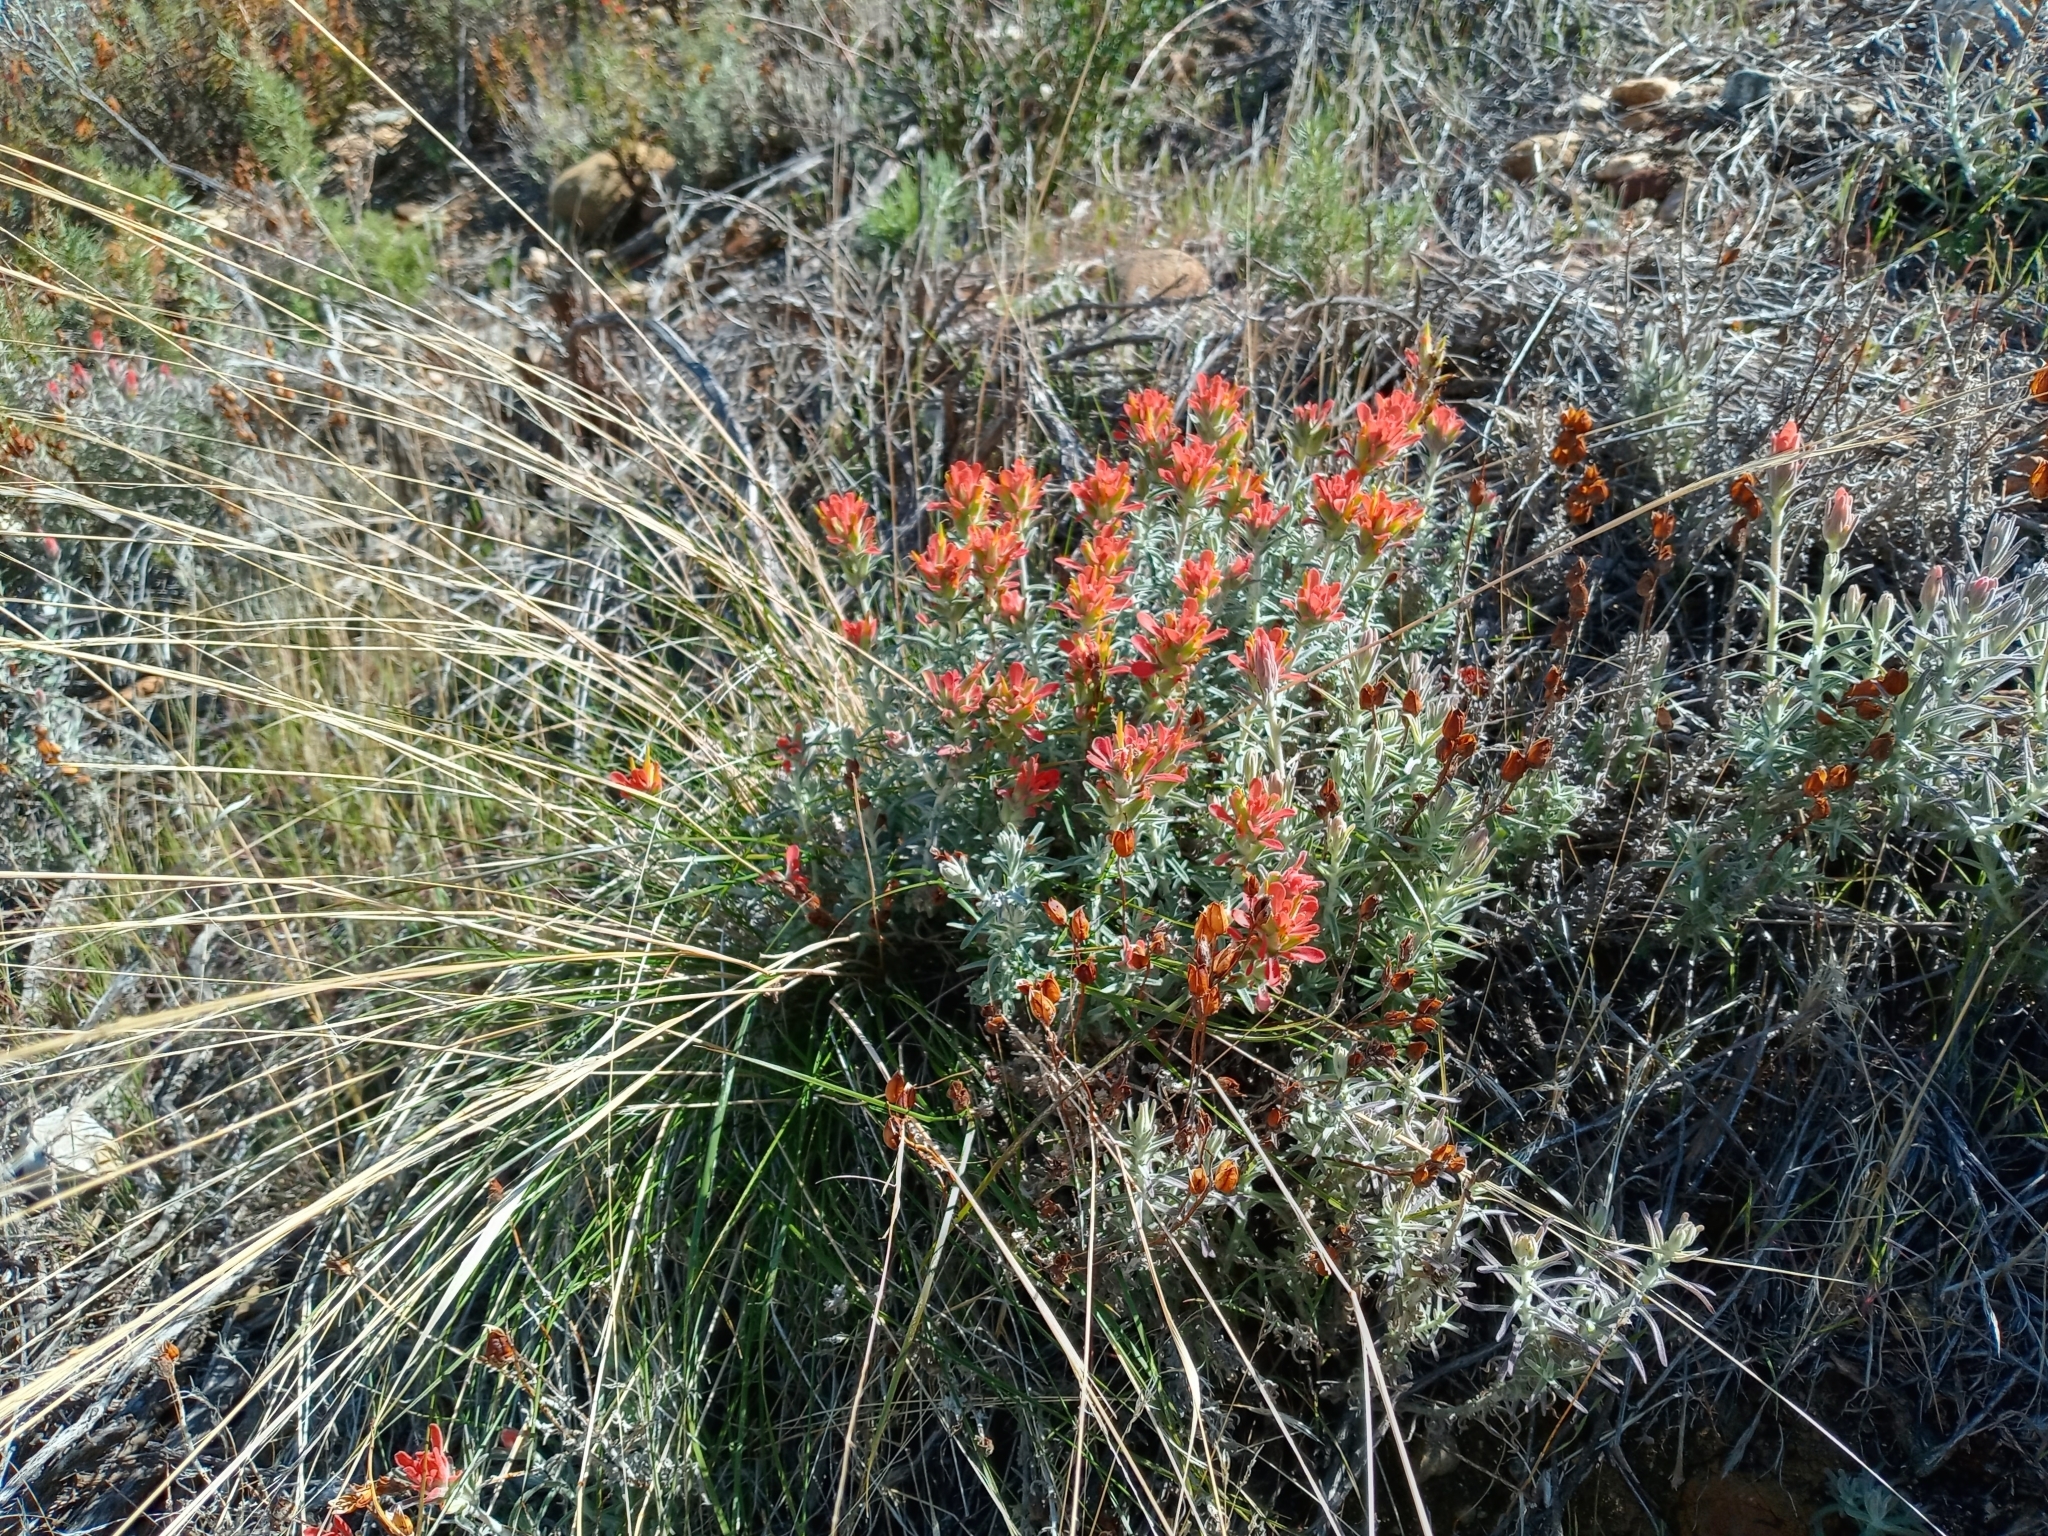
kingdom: Plantae
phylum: Tracheophyta
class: Magnoliopsida
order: Lamiales
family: Orobanchaceae
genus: Castilleja
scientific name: Castilleja foliolosa
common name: Woolly indian paintbrush
